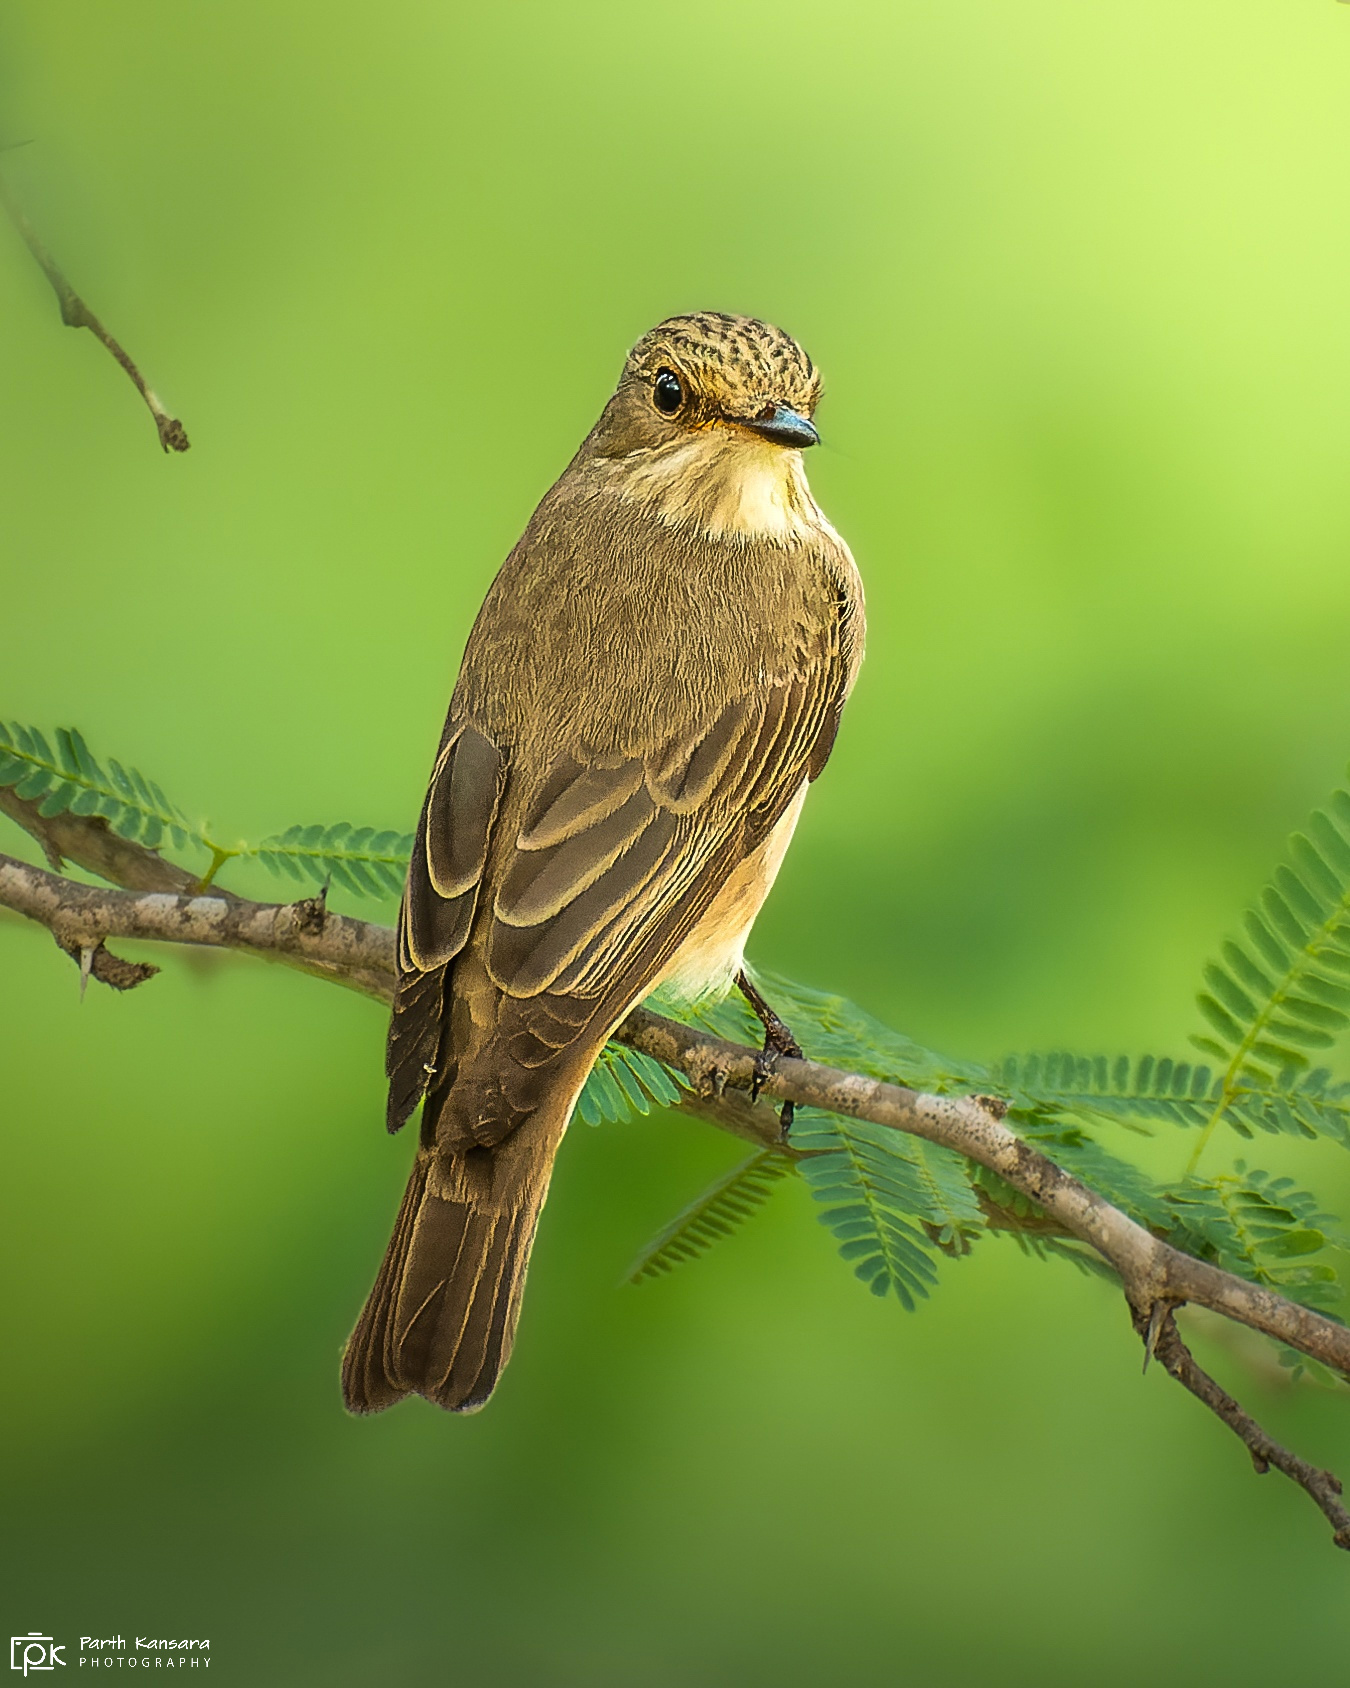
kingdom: Animalia
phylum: Chordata
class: Aves
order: Passeriformes
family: Muscicapidae
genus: Muscicapa
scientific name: Muscicapa striata
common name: Spotted flycatcher
